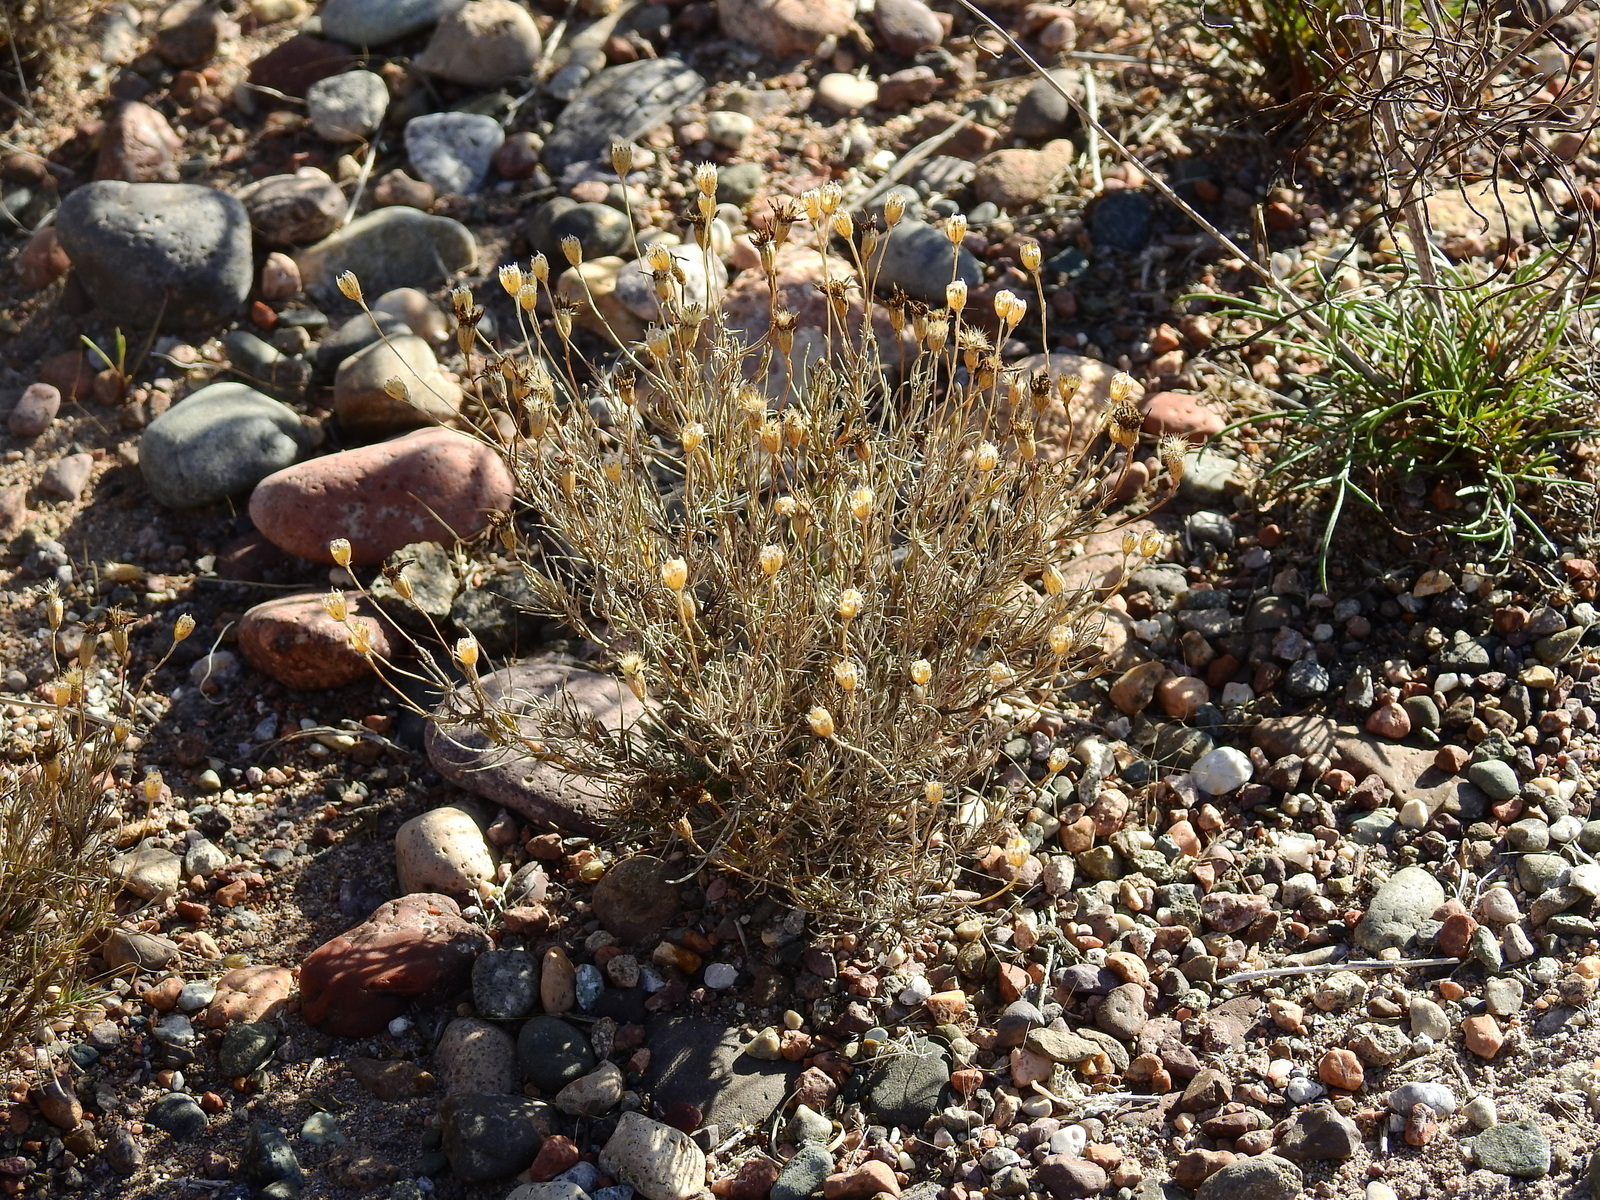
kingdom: Plantae
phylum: Tracheophyta
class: Magnoliopsida
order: Asterales
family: Asteraceae
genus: Thymophylla
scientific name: Thymophylla pentachaeta
